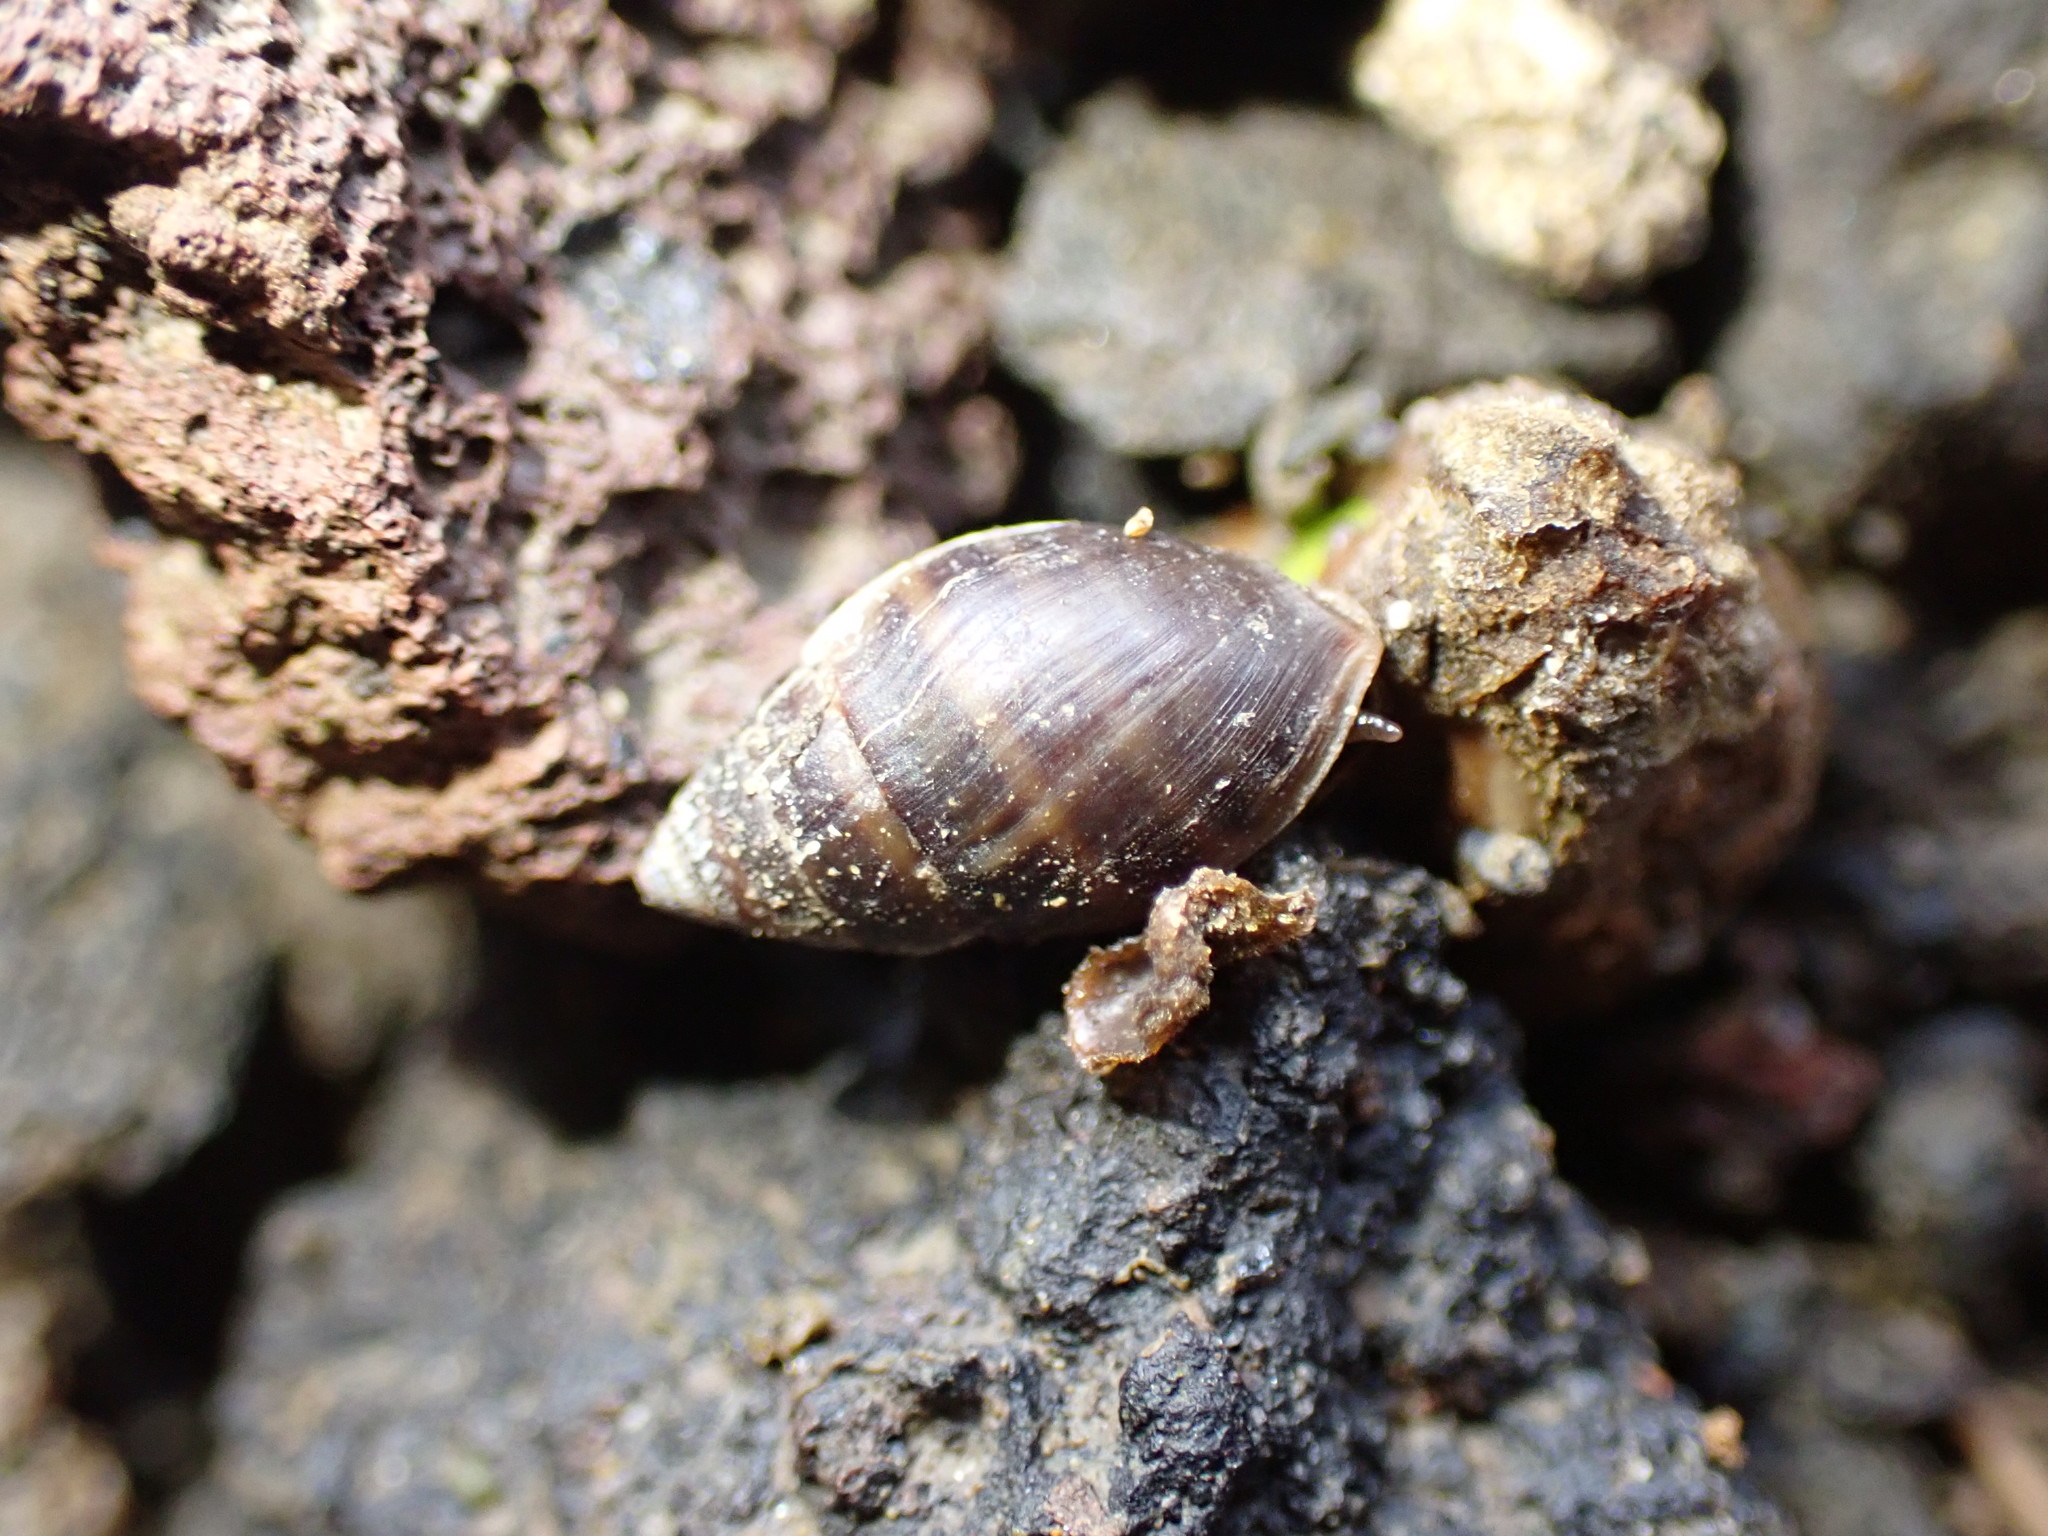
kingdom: Animalia
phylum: Mollusca
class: Gastropoda
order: Ellobiida
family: Ellobiidae
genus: Pleuroloba
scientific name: Pleuroloba costellaris
